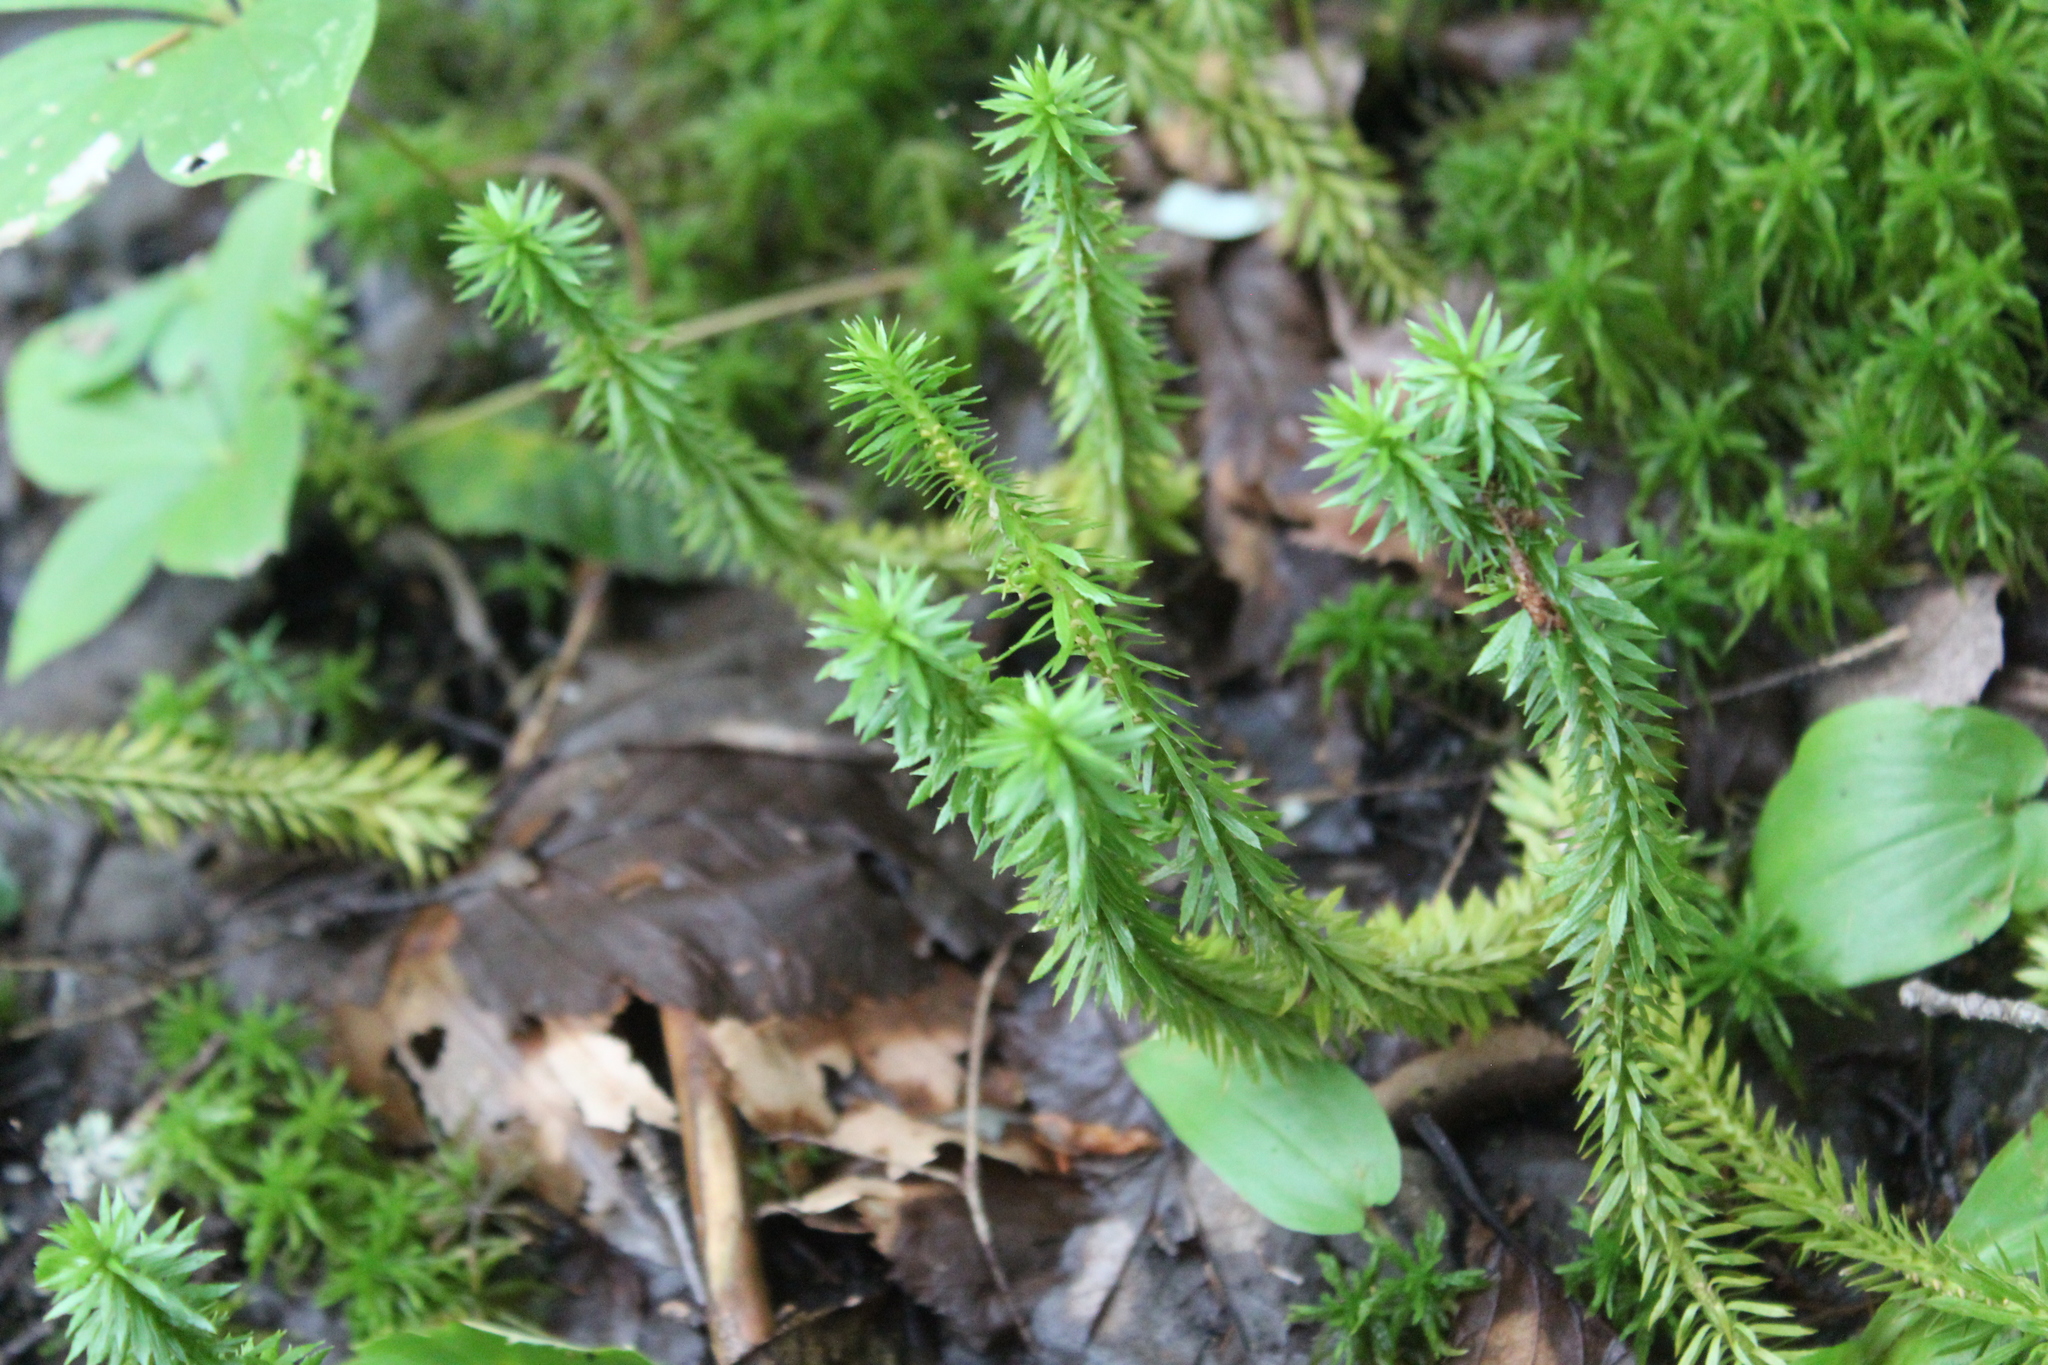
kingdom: Plantae
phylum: Tracheophyta
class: Lycopodiopsida
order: Lycopodiales
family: Lycopodiaceae
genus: Huperzia
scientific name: Huperzia lucidula
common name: Shining clubmoss
